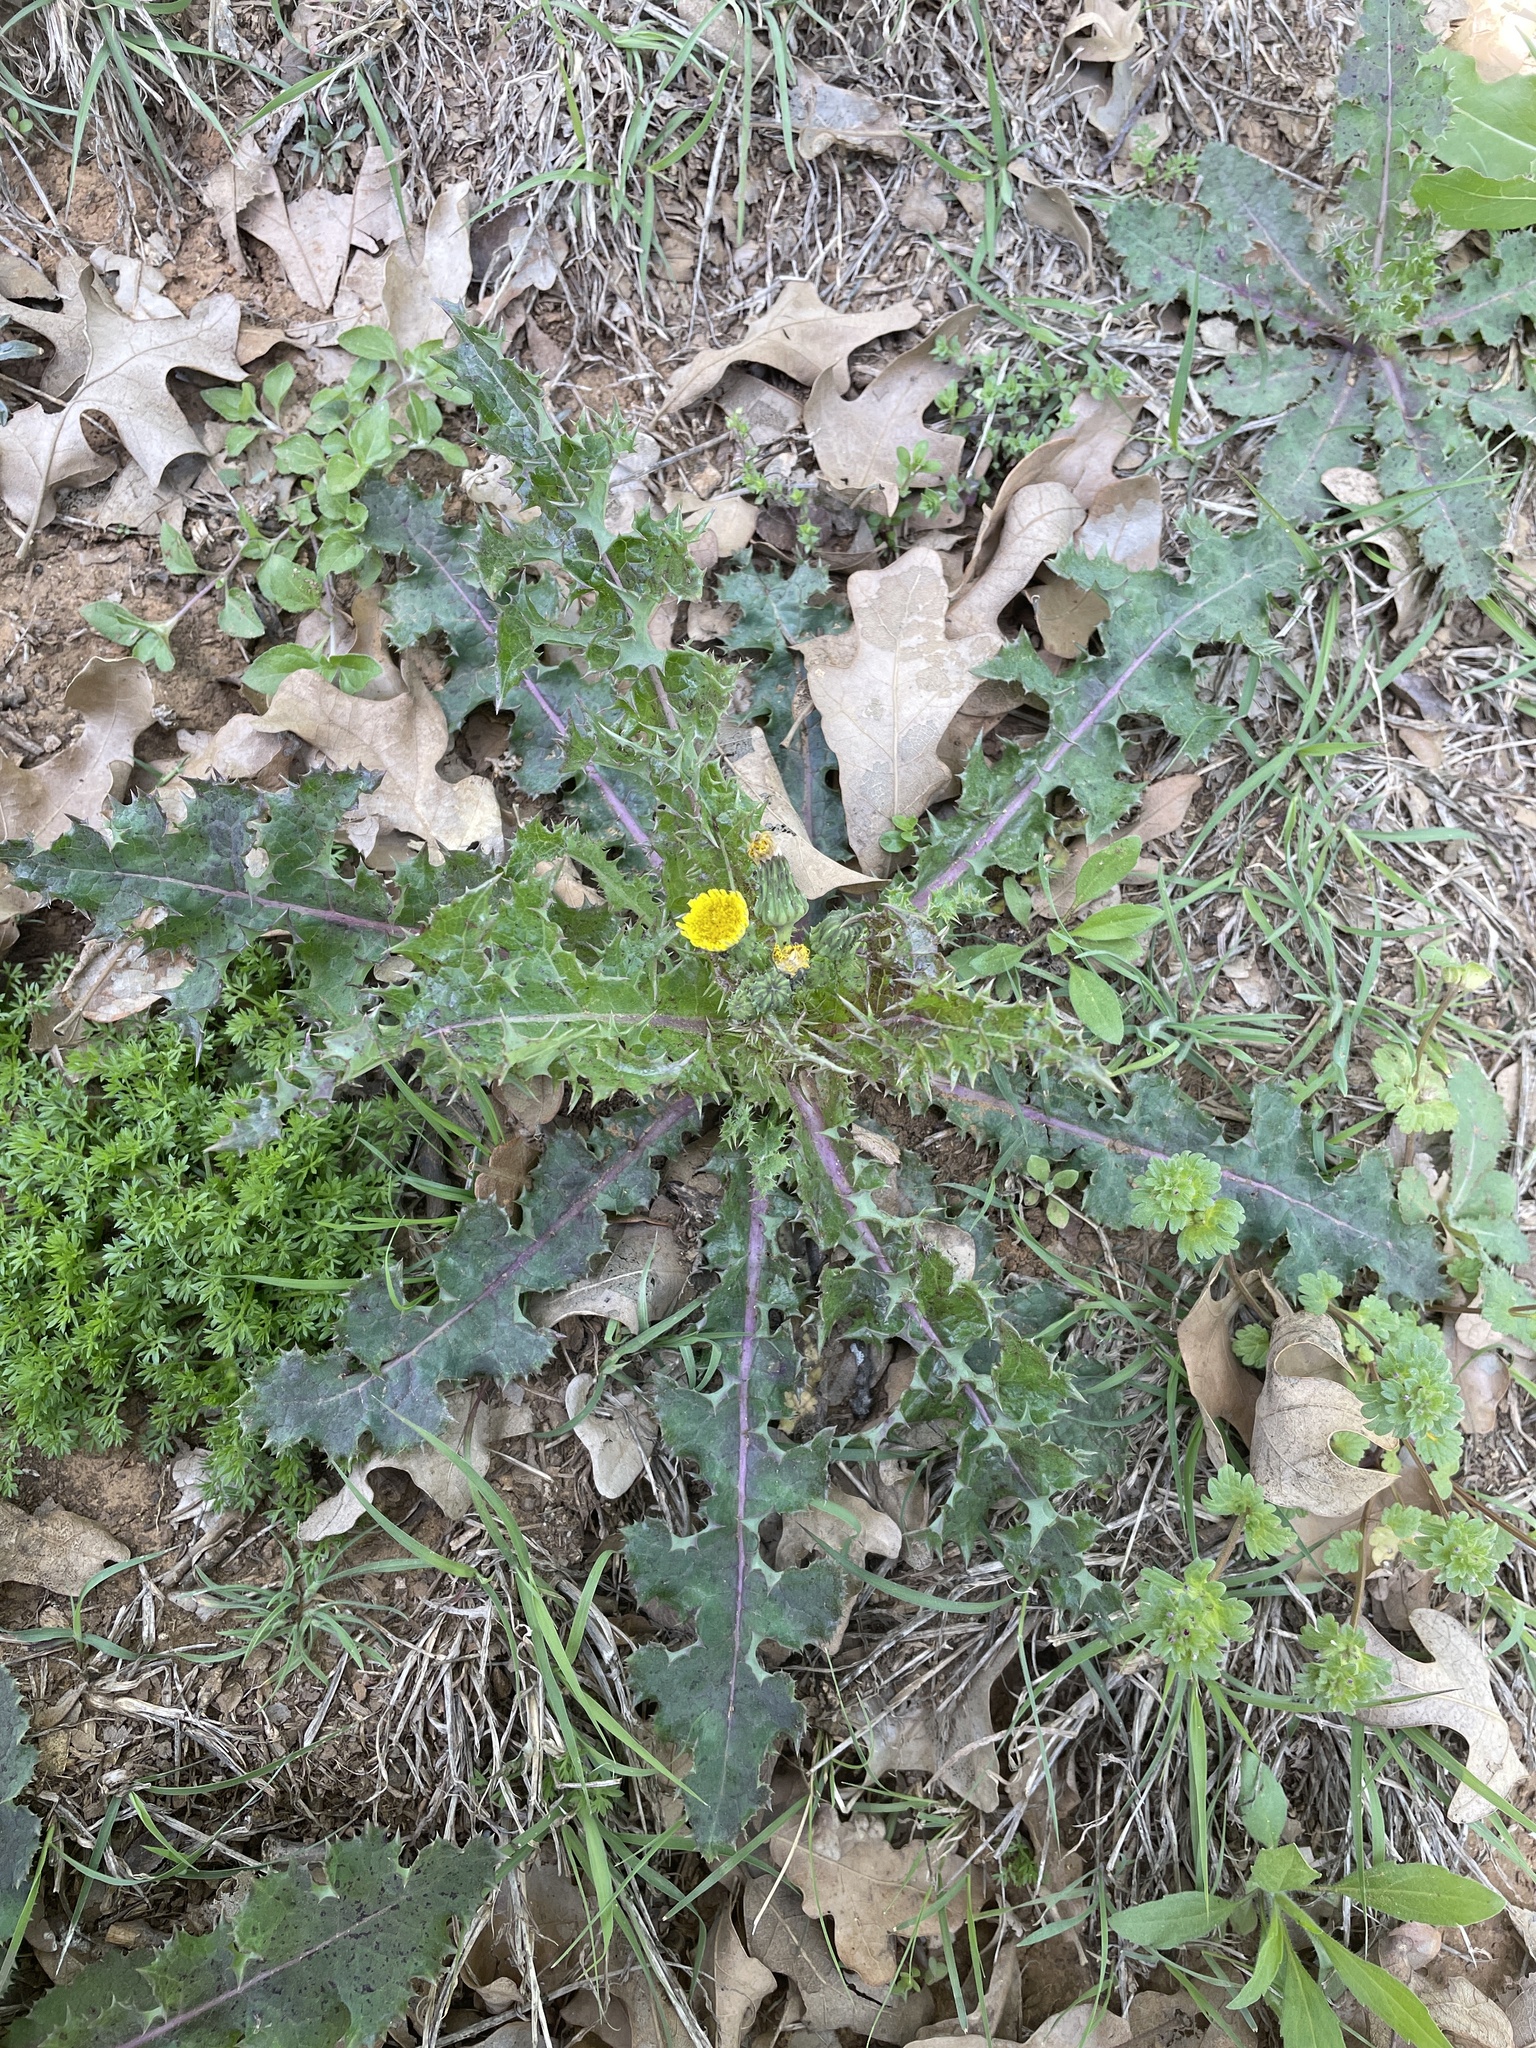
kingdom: Plantae
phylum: Tracheophyta
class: Magnoliopsida
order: Asterales
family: Asteraceae
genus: Sonchus
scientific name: Sonchus asper
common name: Prickly sow-thistle
